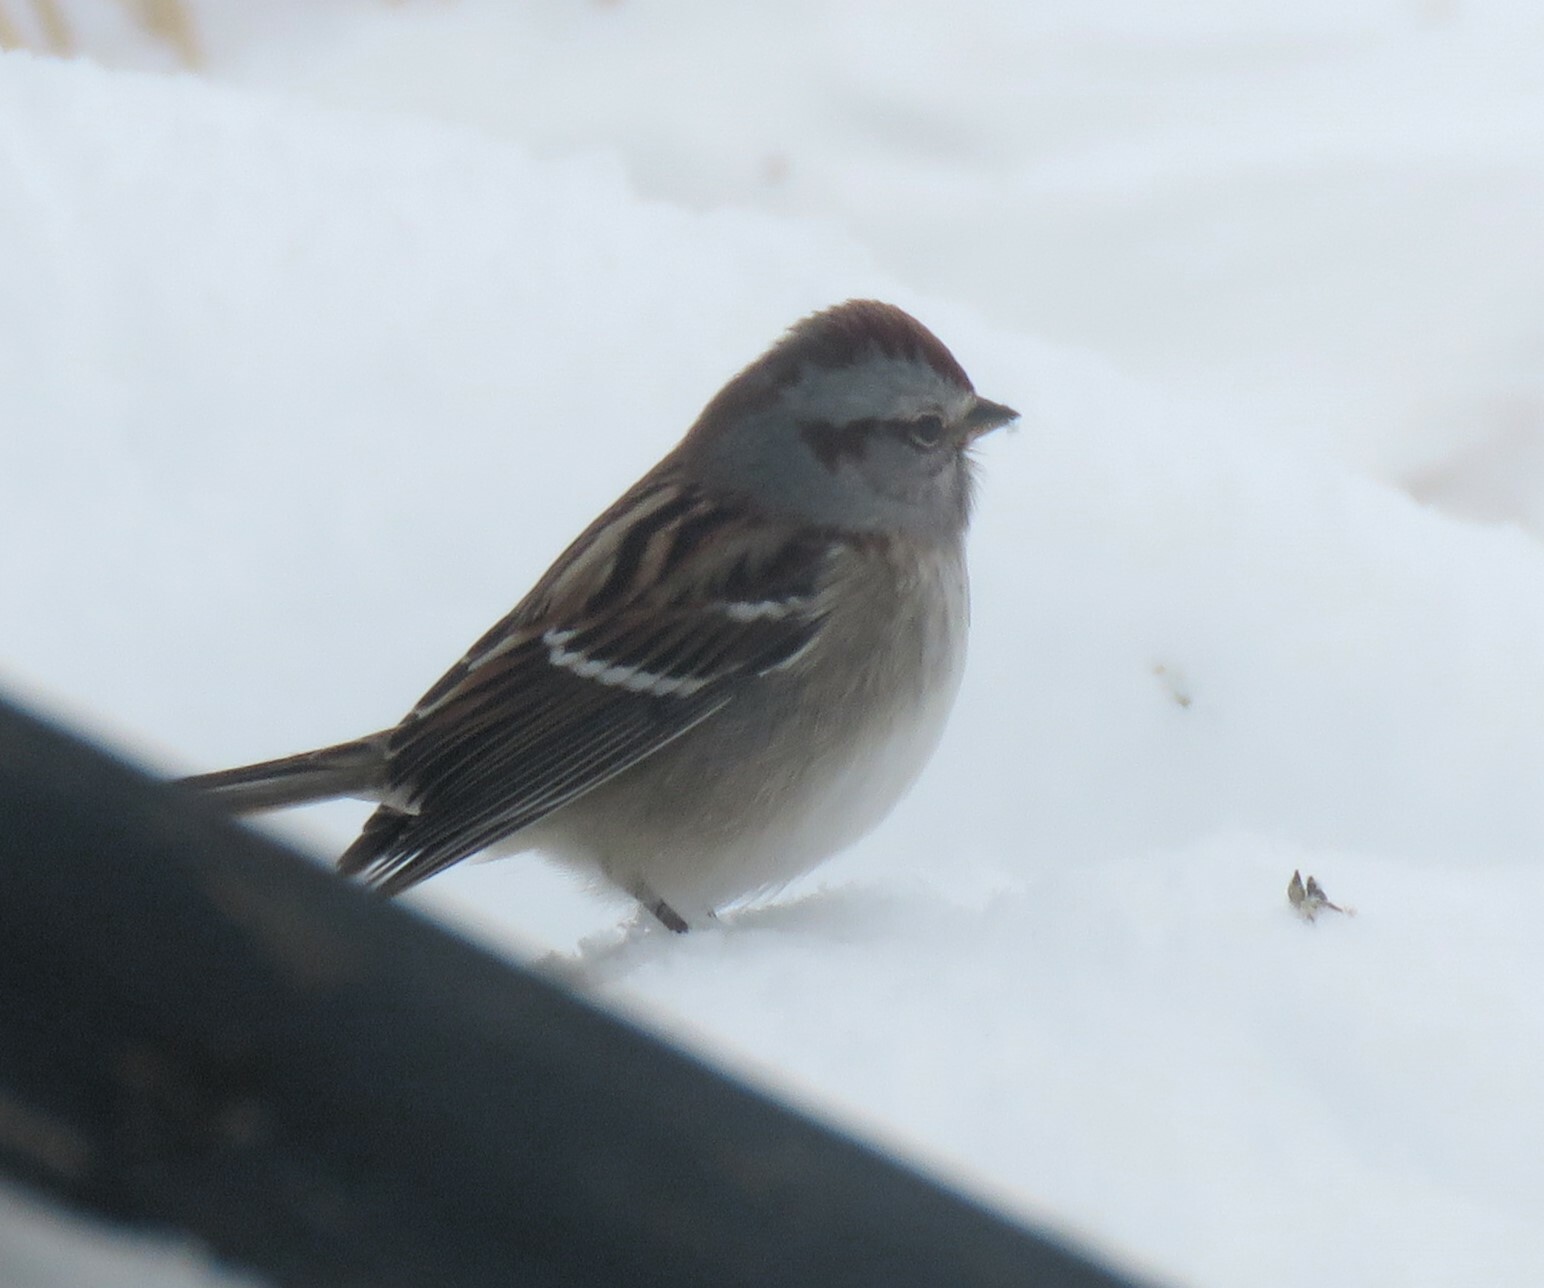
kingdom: Animalia
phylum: Chordata
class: Aves
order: Passeriformes
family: Passerellidae
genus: Spizelloides
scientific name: Spizelloides arborea
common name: American tree sparrow
